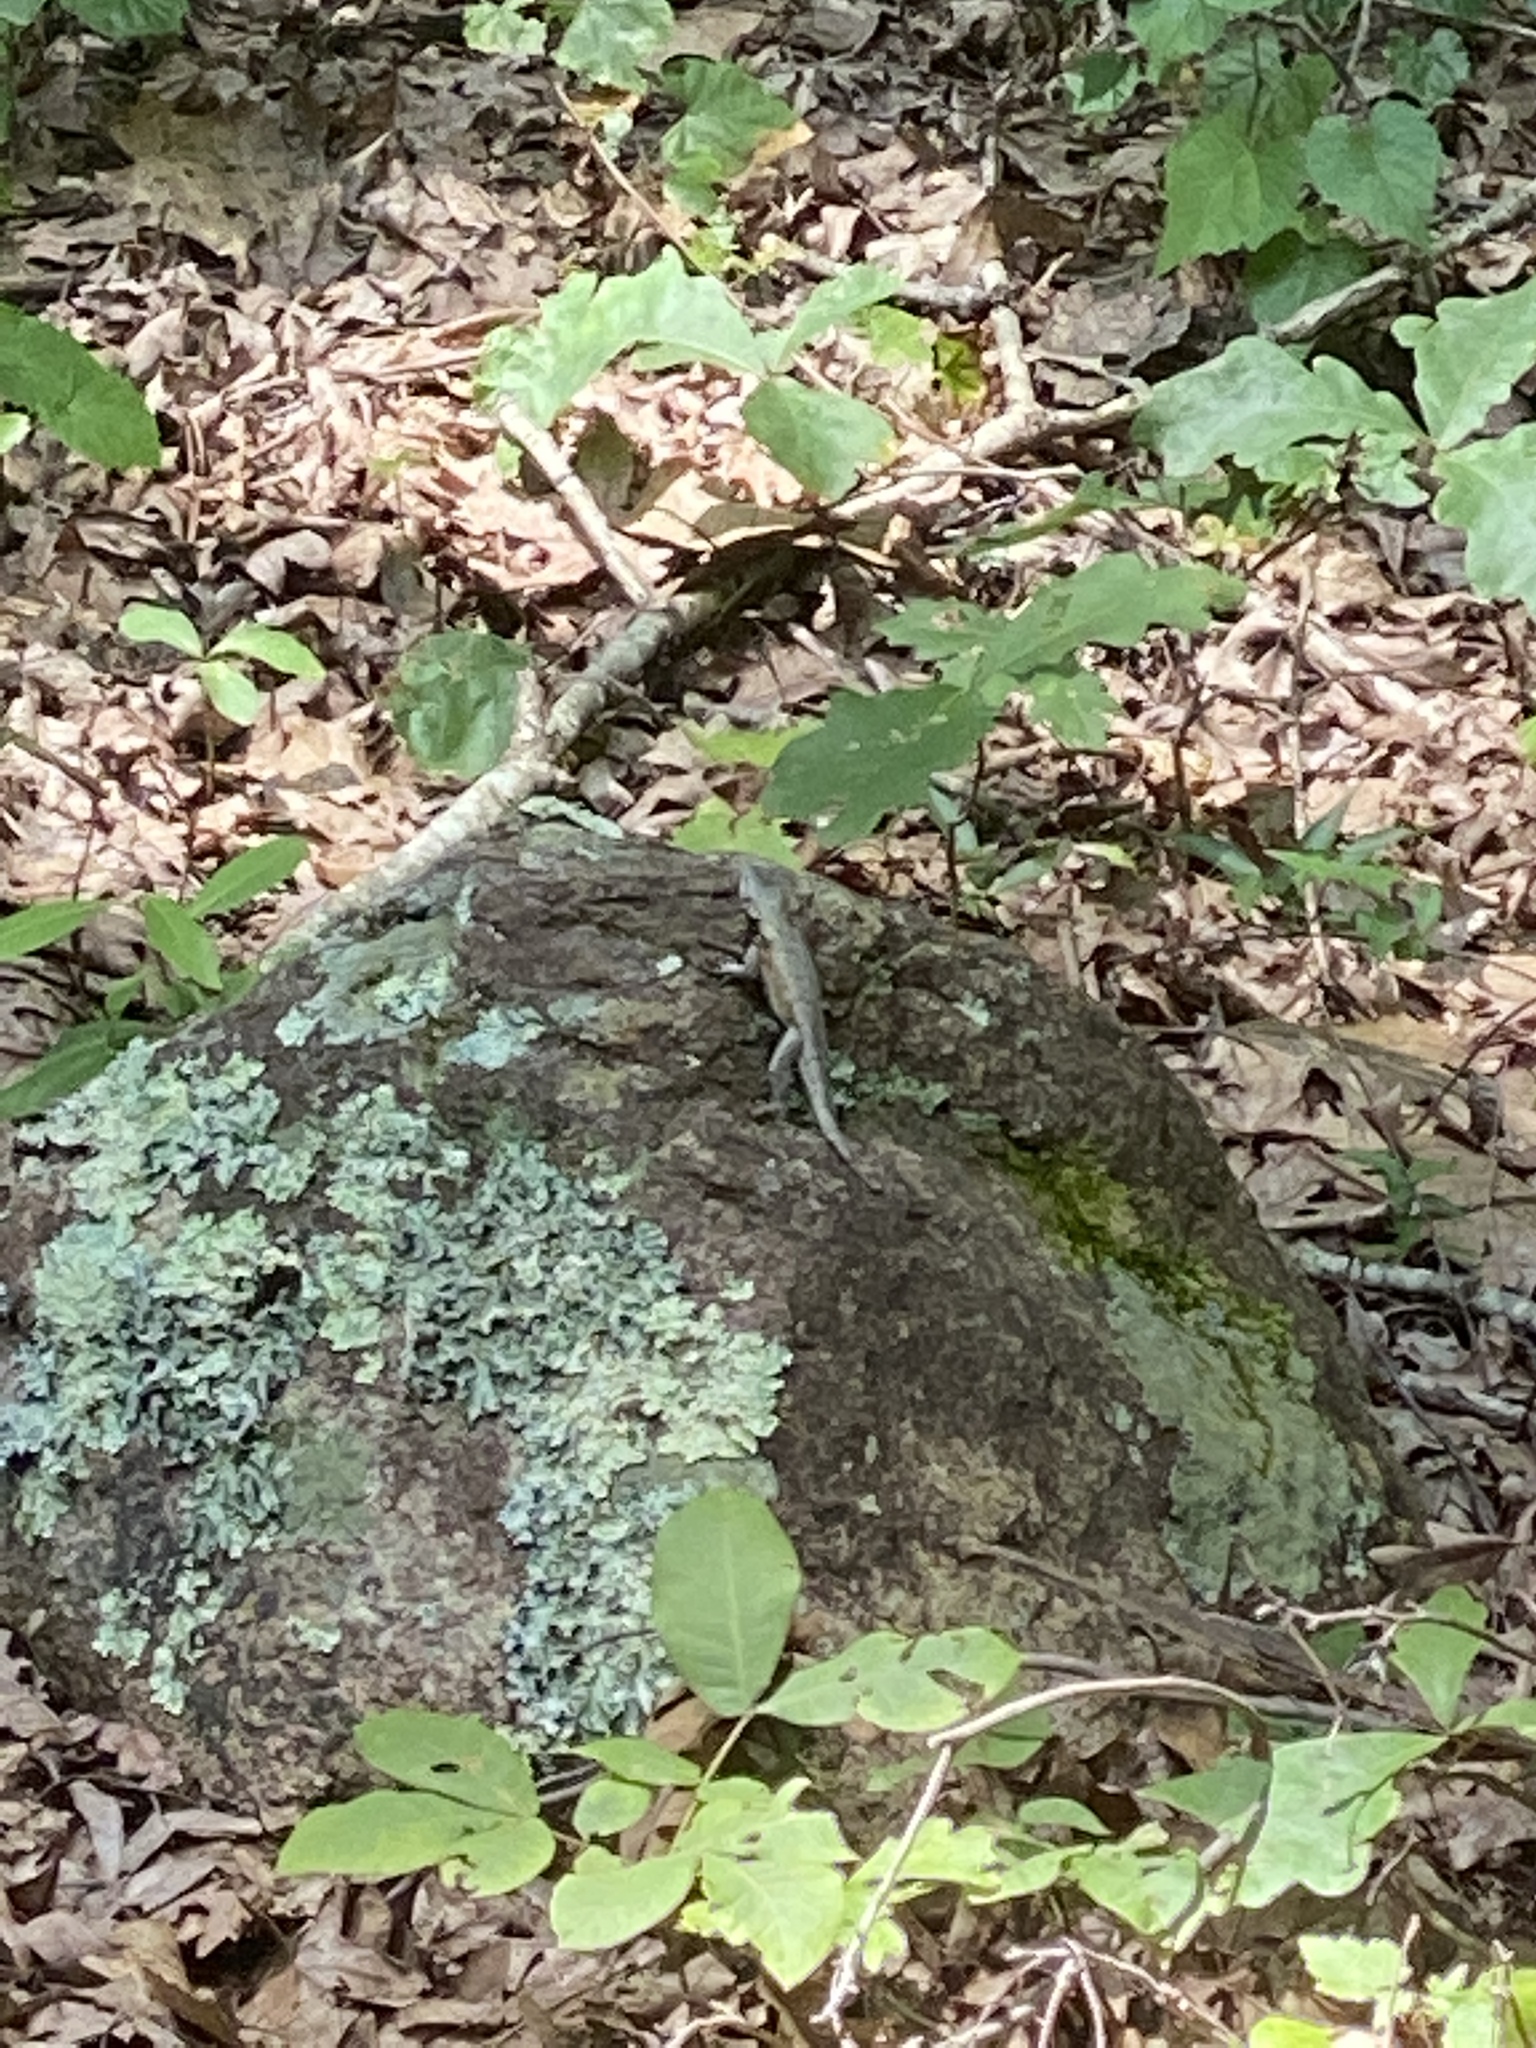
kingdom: Animalia
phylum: Chordata
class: Squamata
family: Phrynosomatidae
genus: Sceloporus
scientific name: Sceloporus undulatus
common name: Eastern fence lizard
